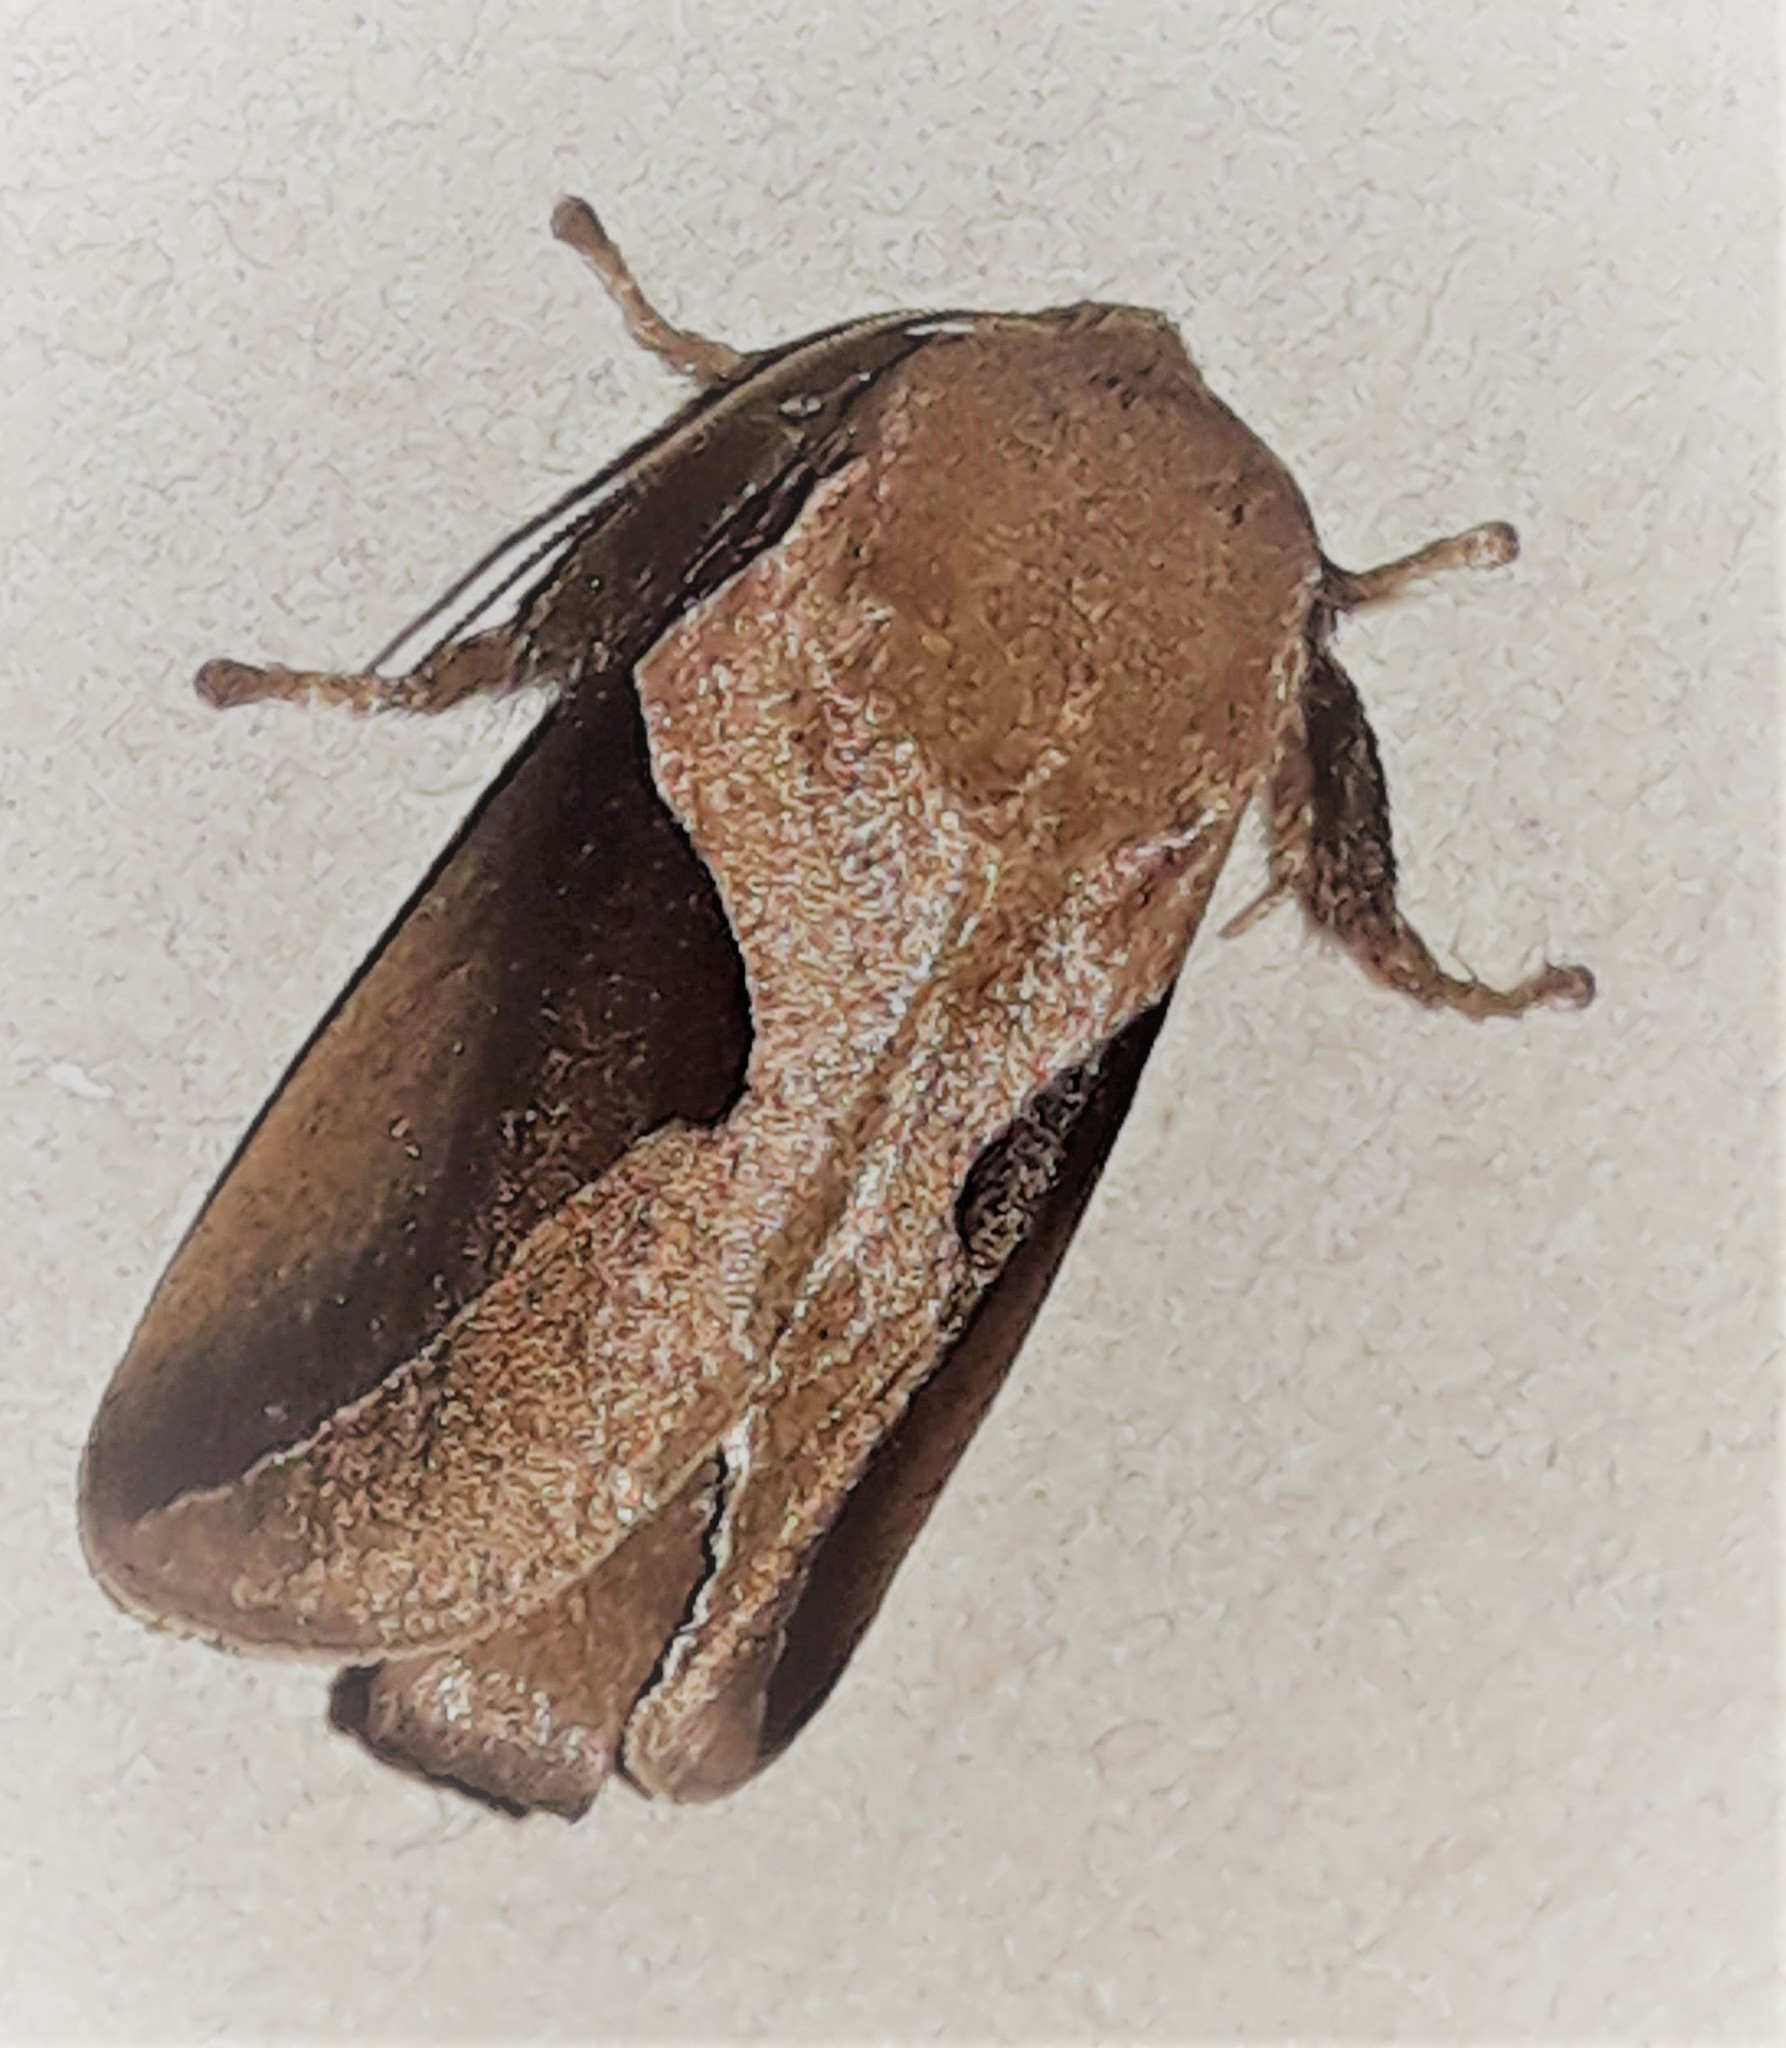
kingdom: Animalia
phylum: Arthropoda
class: Insecta
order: Lepidoptera
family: Limacodidae
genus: Prolimacodes
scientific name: Prolimacodes triangulifera
